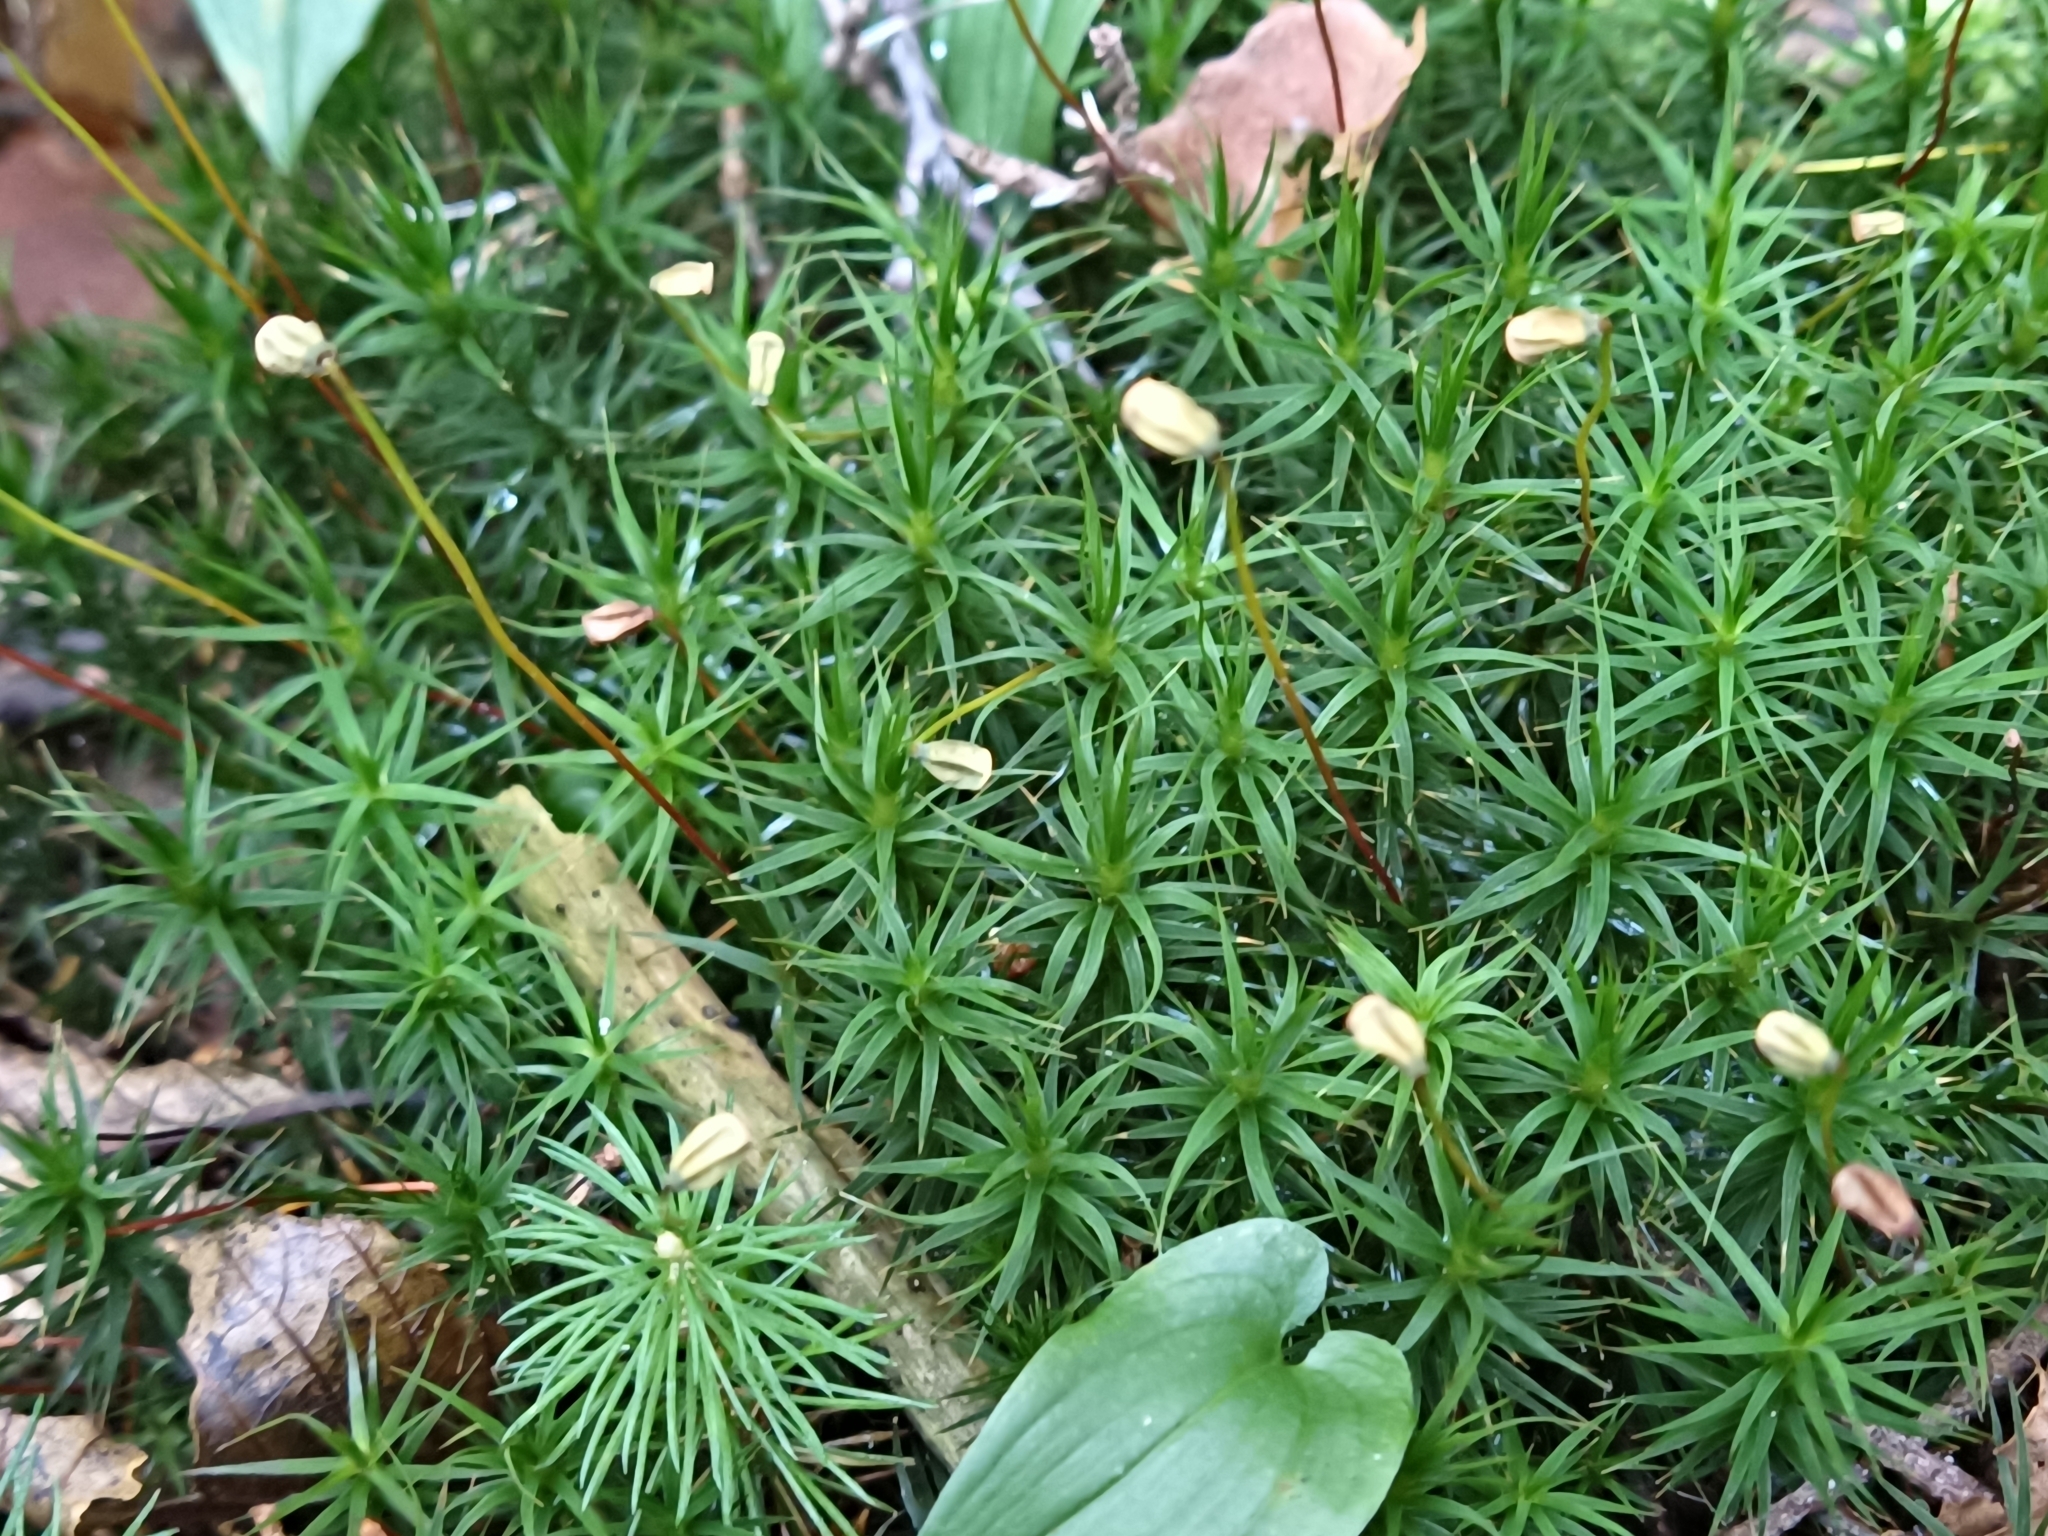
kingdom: Plantae
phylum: Bryophyta
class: Polytrichopsida
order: Polytrichales
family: Polytrichaceae
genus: Polytrichum
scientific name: Polytrichum formosum
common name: Bank haircap moss
